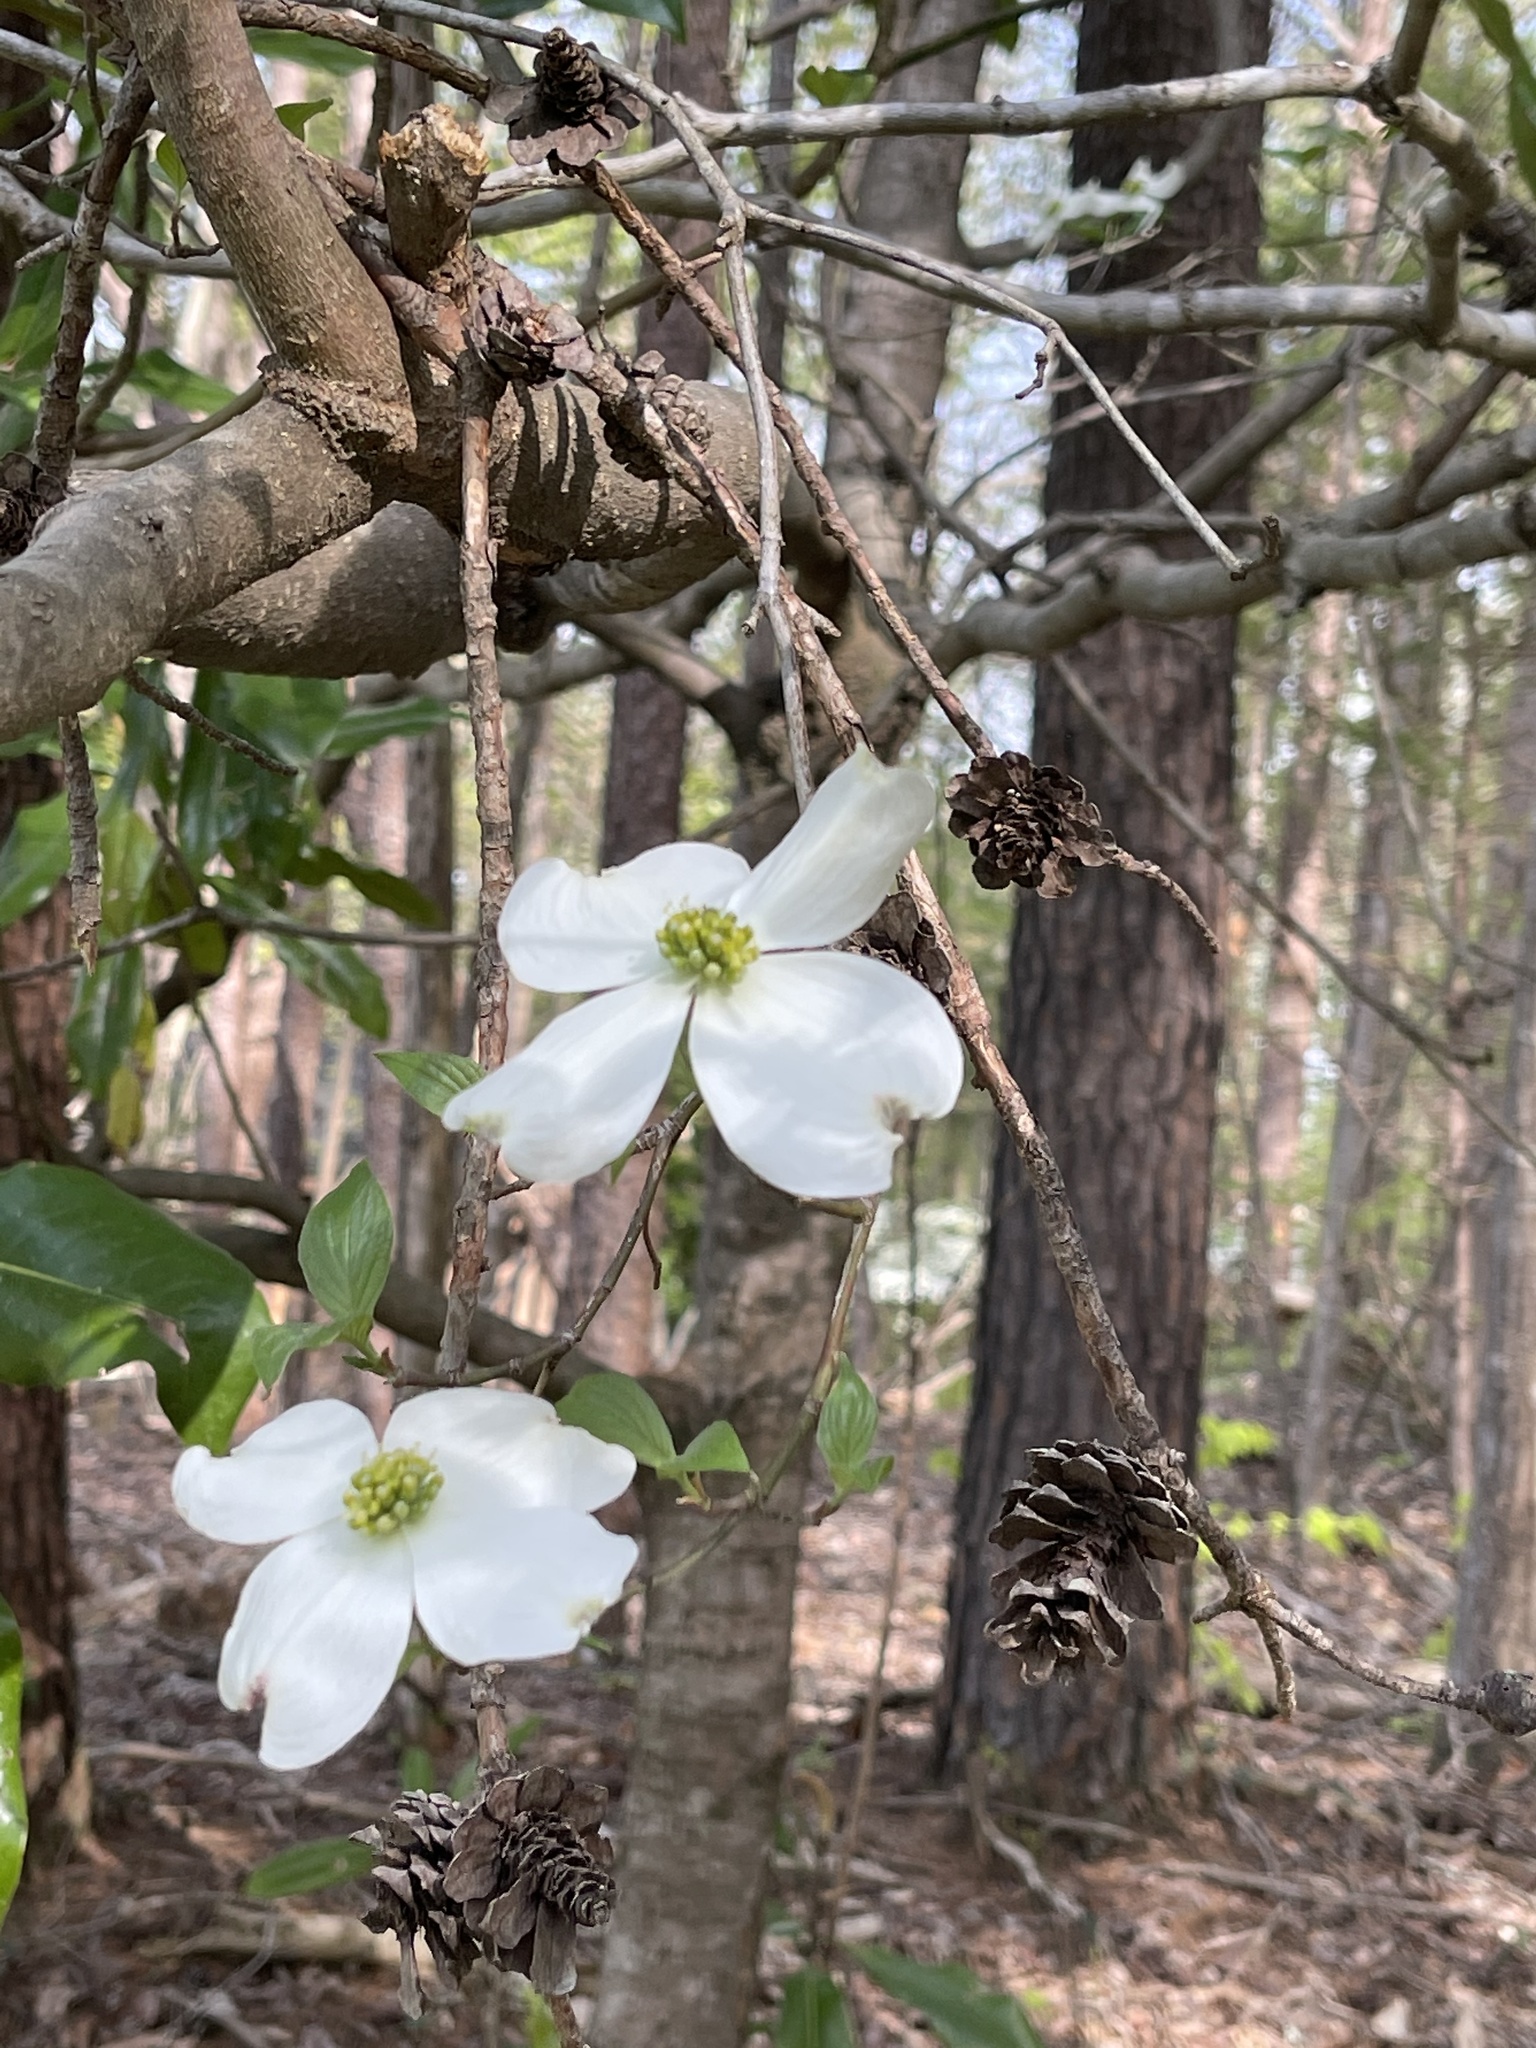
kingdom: Plantae
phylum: Tracheophyta
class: Magnoliopsida
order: Cornales
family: Cornaceae
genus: Cornus
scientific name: Cornus florida
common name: Flowering dogwood
